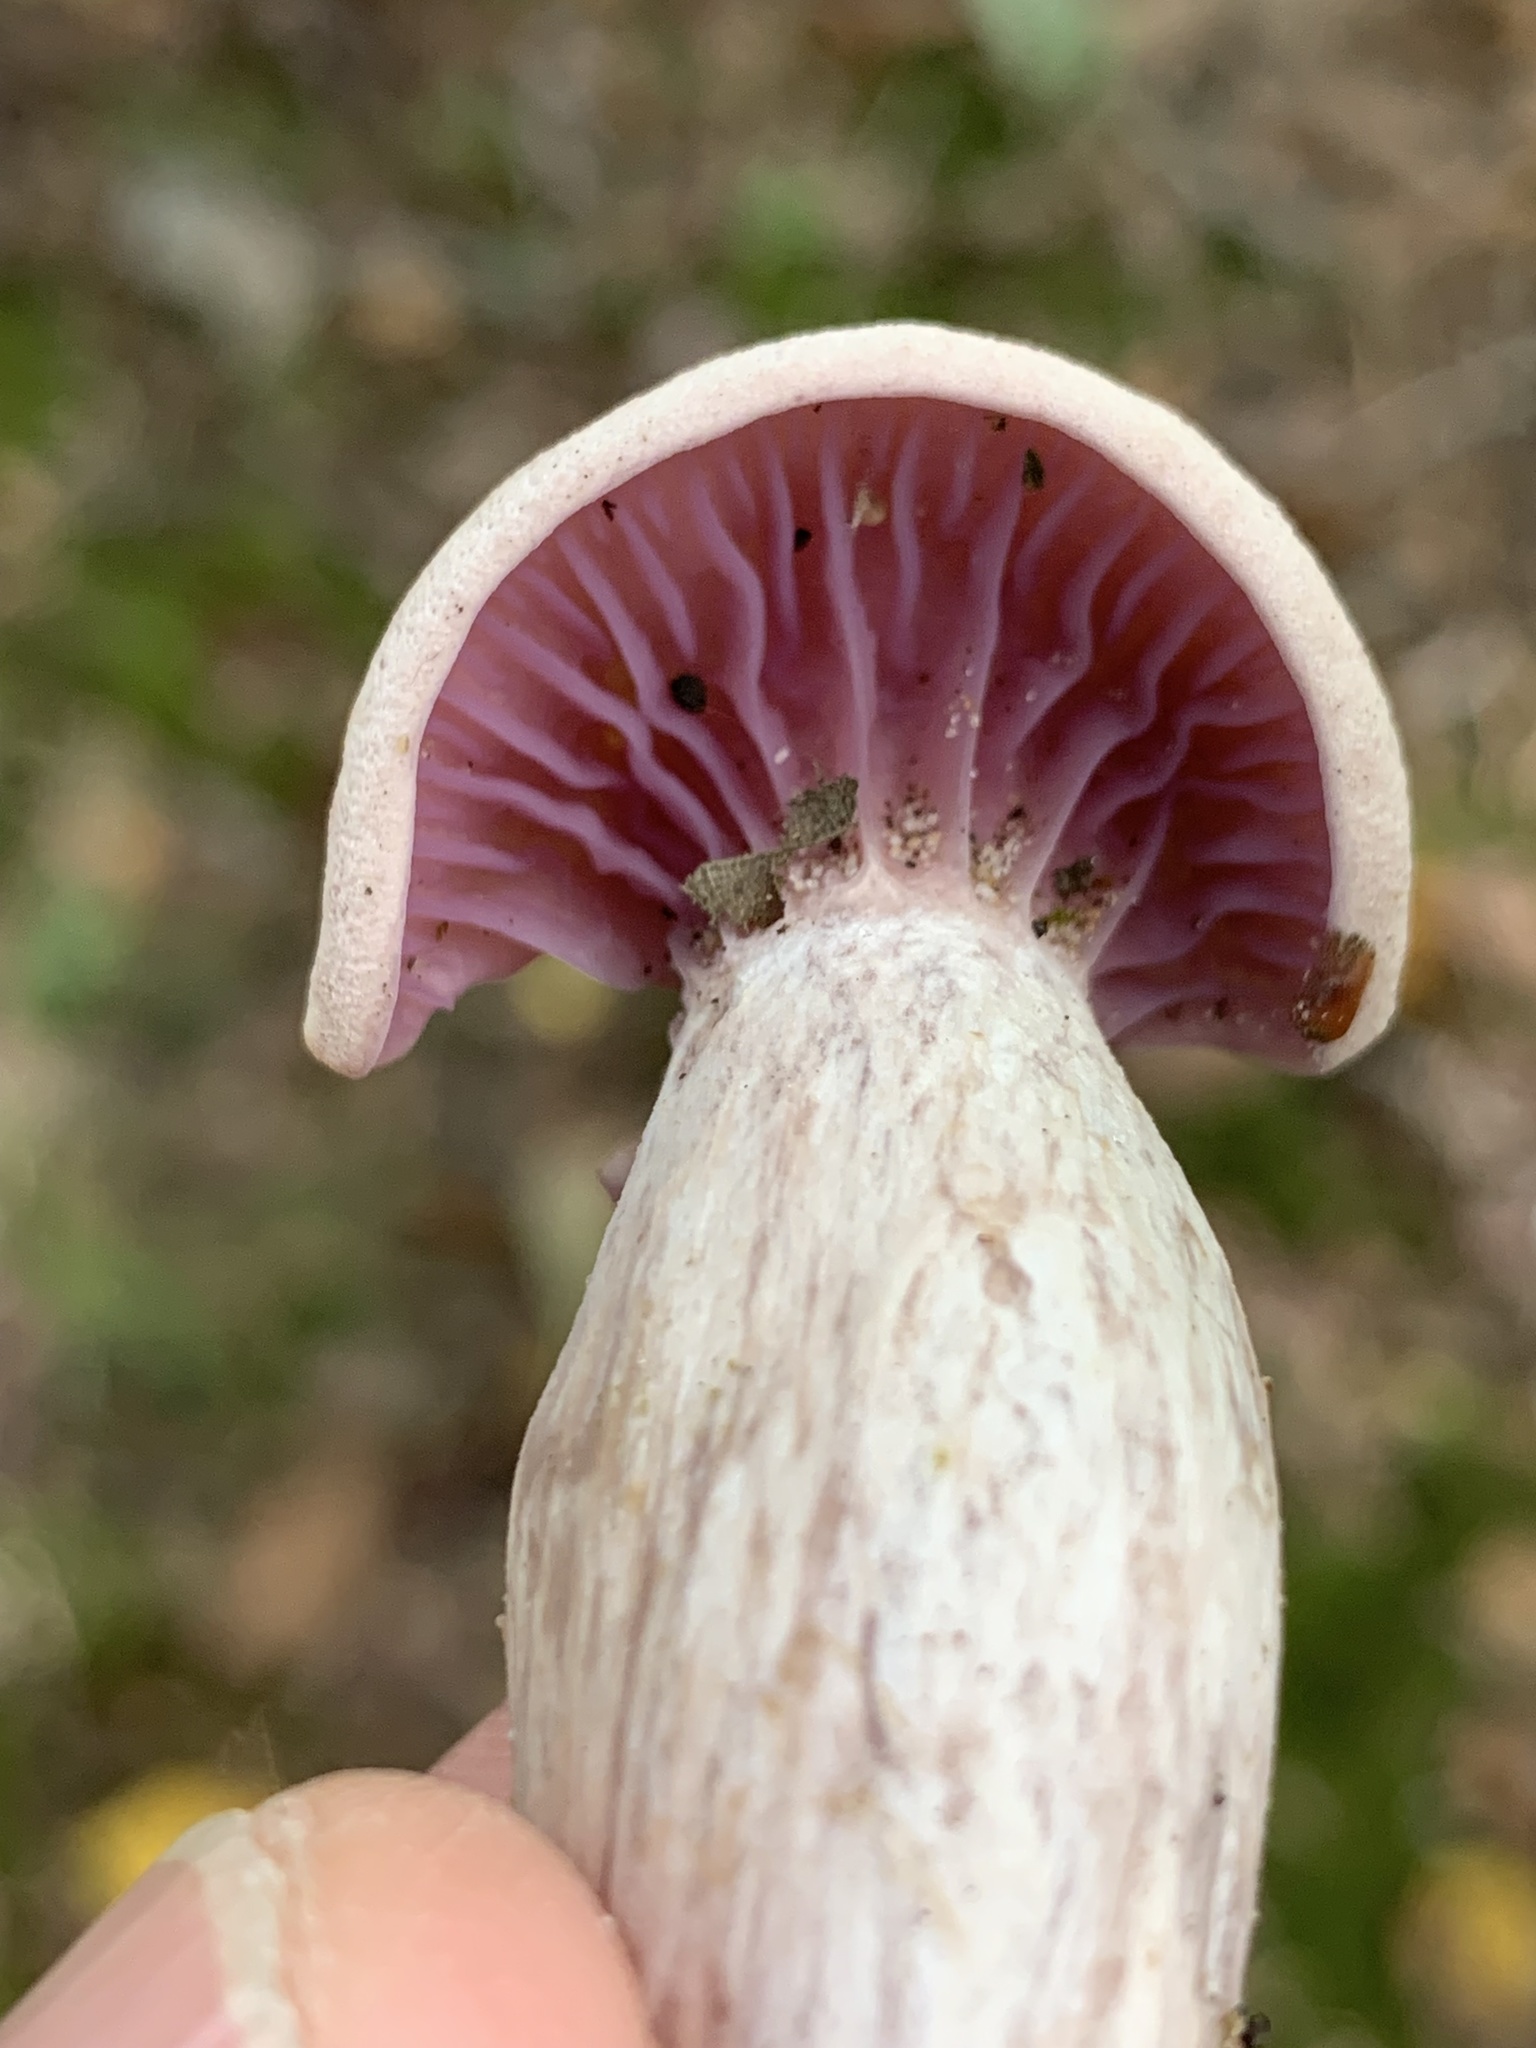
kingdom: Fungi
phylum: Basidiomycota
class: Agaricomycetes
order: Agaricales
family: Hydnangiaceae
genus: Laccaria
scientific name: Laccaria ochropurpurea
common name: Purple laccaria
